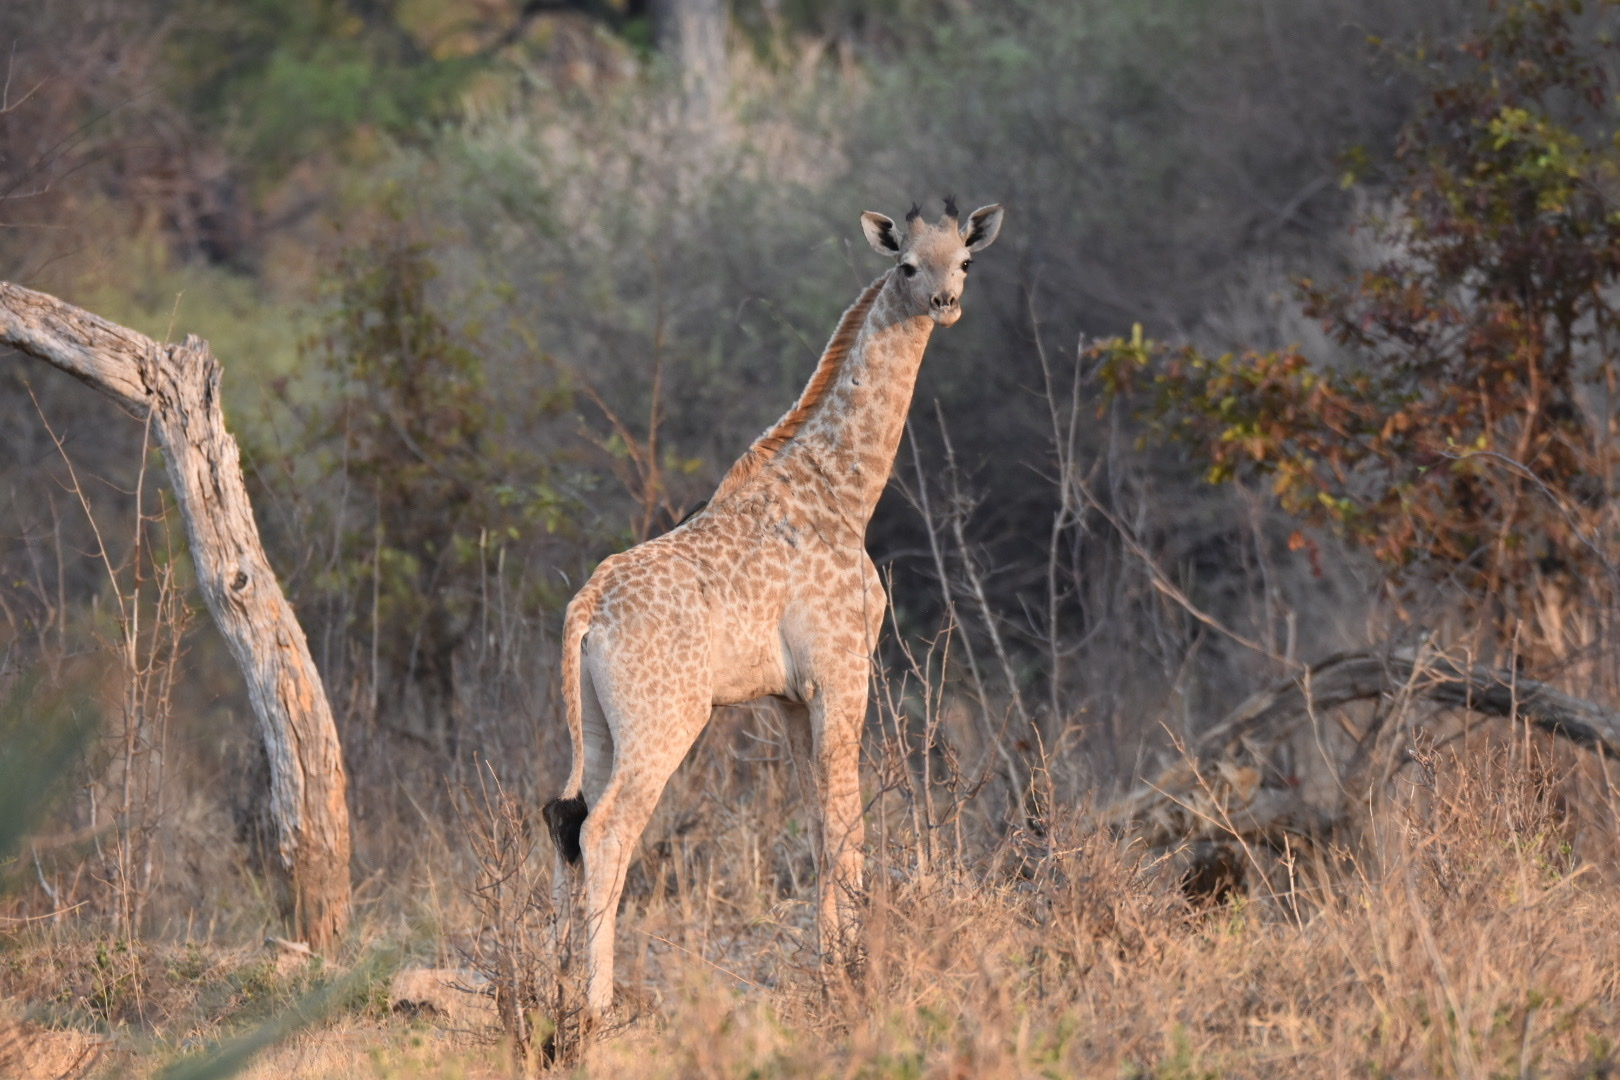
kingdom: Animalia
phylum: Chordata
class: Mammalia
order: Artiodactyla
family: Giraffidae
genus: Giraffa
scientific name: Giraffa giraffa
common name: Southern giraffe
